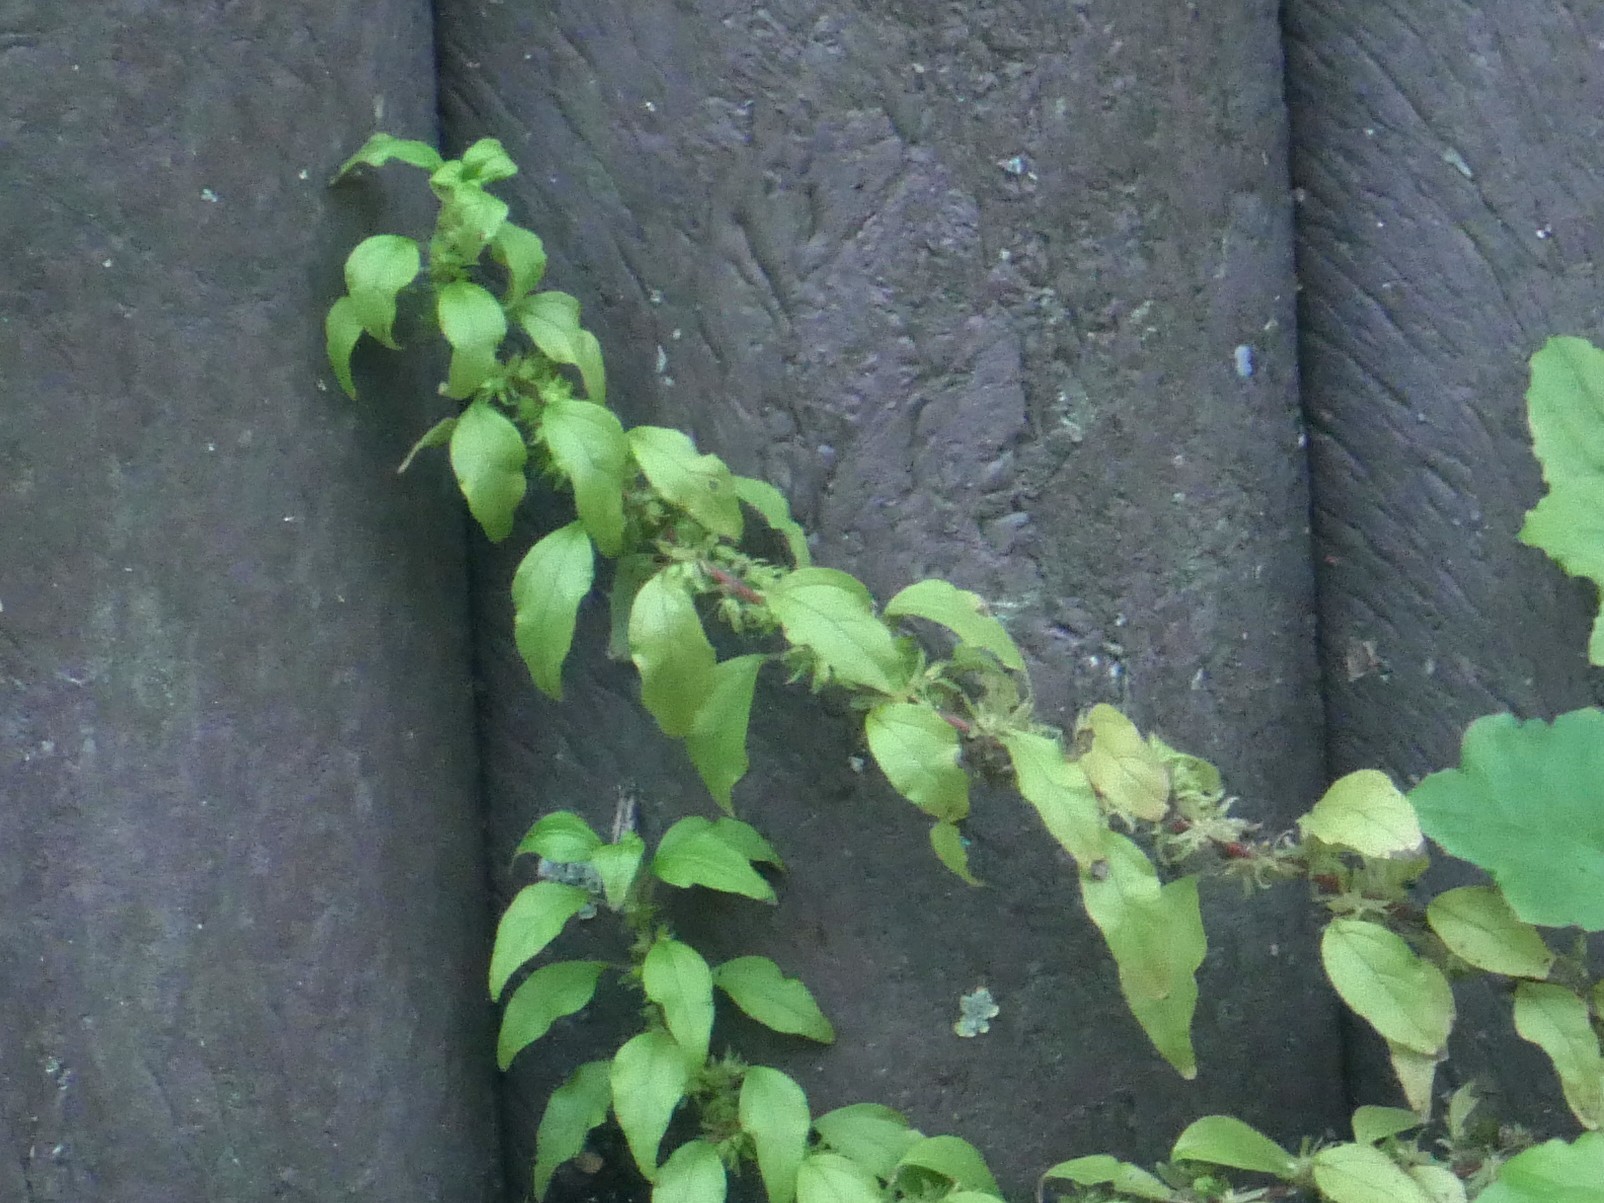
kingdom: Plantae
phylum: Tracheophyta
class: Magnoliopsida
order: Rosales
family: Urticaceae
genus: Parietaria
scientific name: Parietaria pensylvanica
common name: Pennsylvania pellitory
